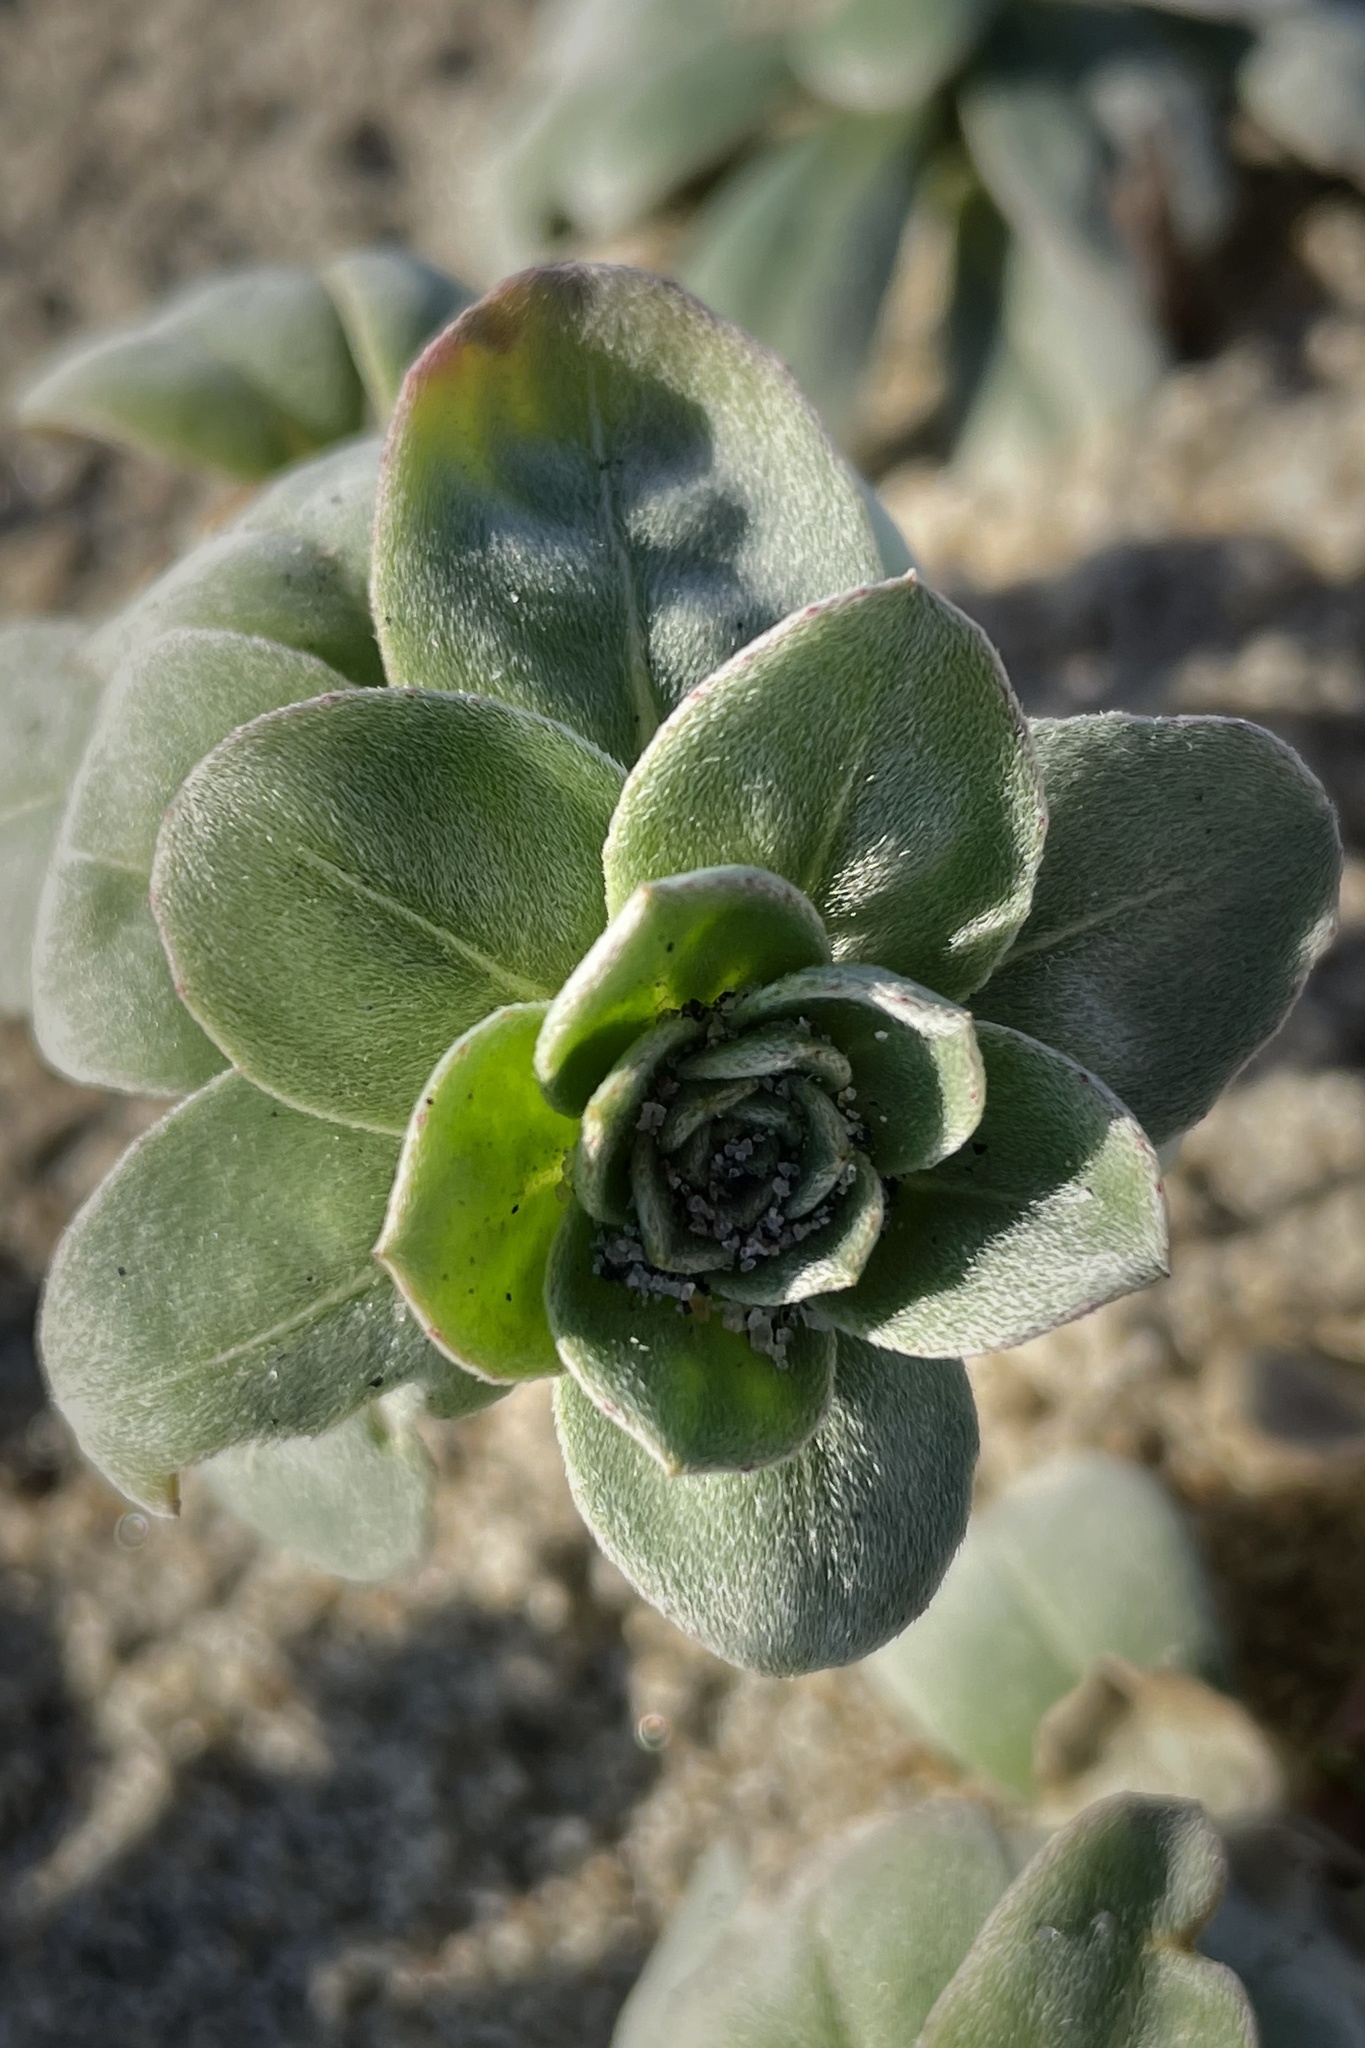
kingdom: Plantae
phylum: Tracheophyta
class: Magnoliopsida
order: Myrtales
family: Onagraceae
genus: Camissoniopsis
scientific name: Camissoniopsis cheiranthifolia
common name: Beach suncup
